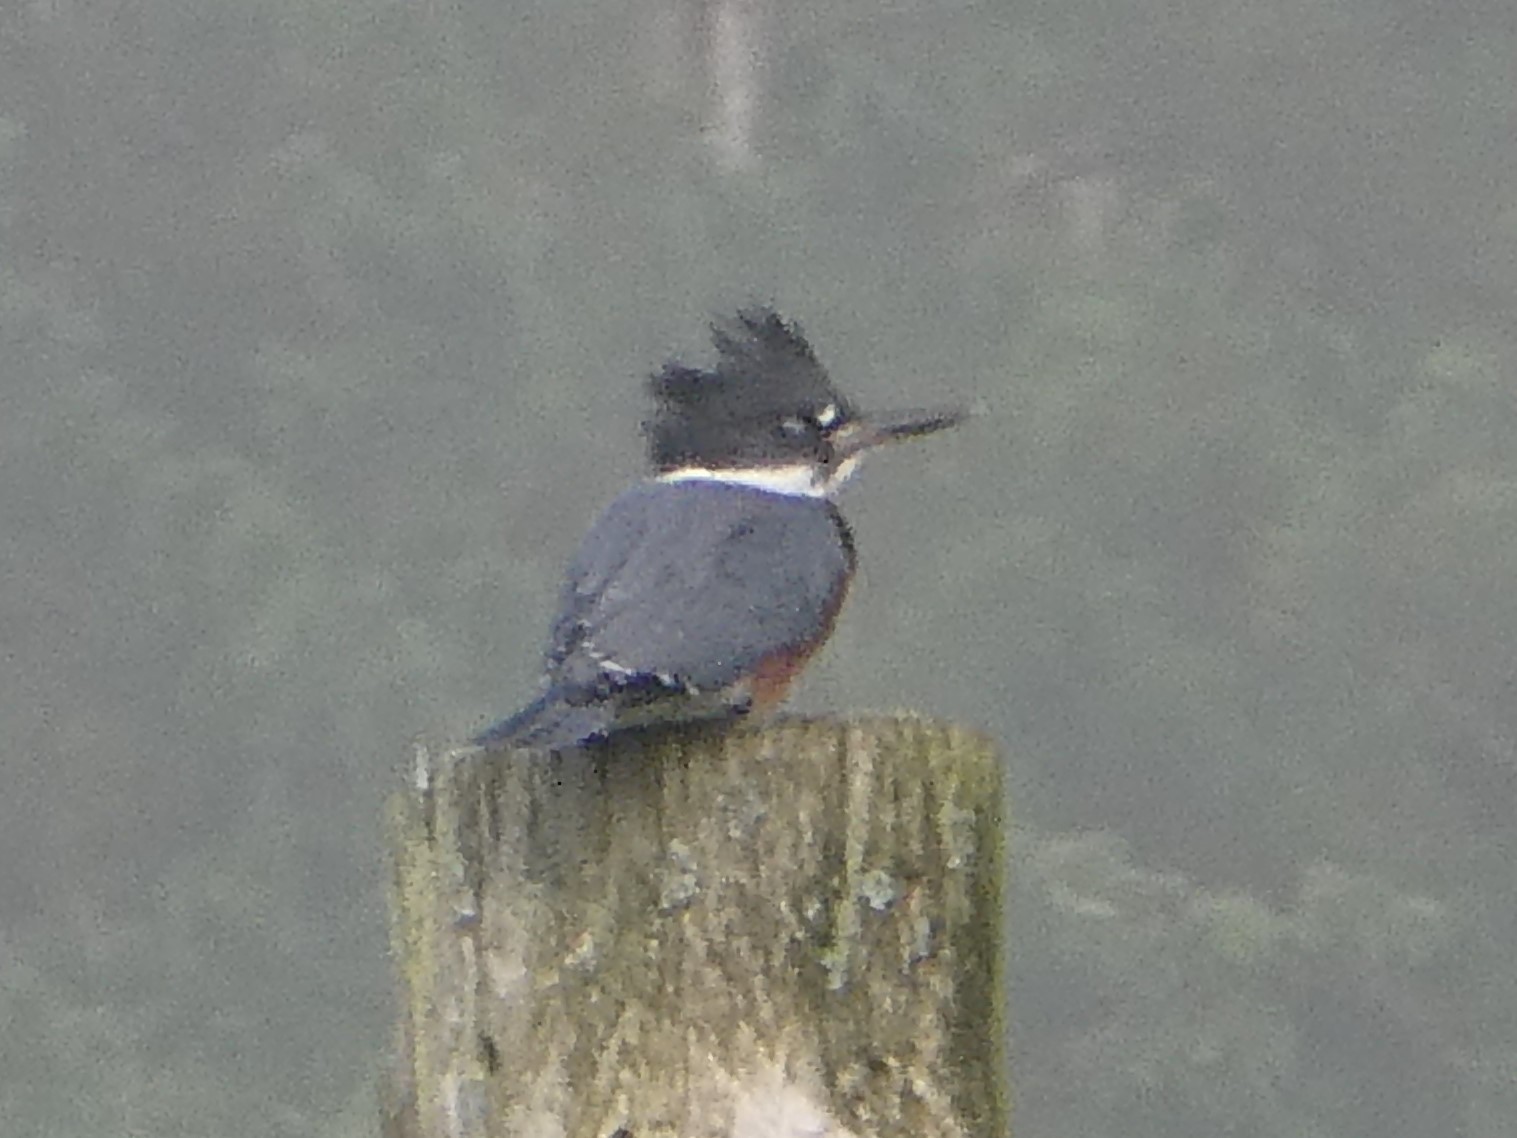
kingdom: Animalia
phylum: Chordata
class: Aves
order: Coraciiformes
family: Alcedinidae
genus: Megaceryle
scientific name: Megaceryle alcyon
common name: Belted kingfisher
